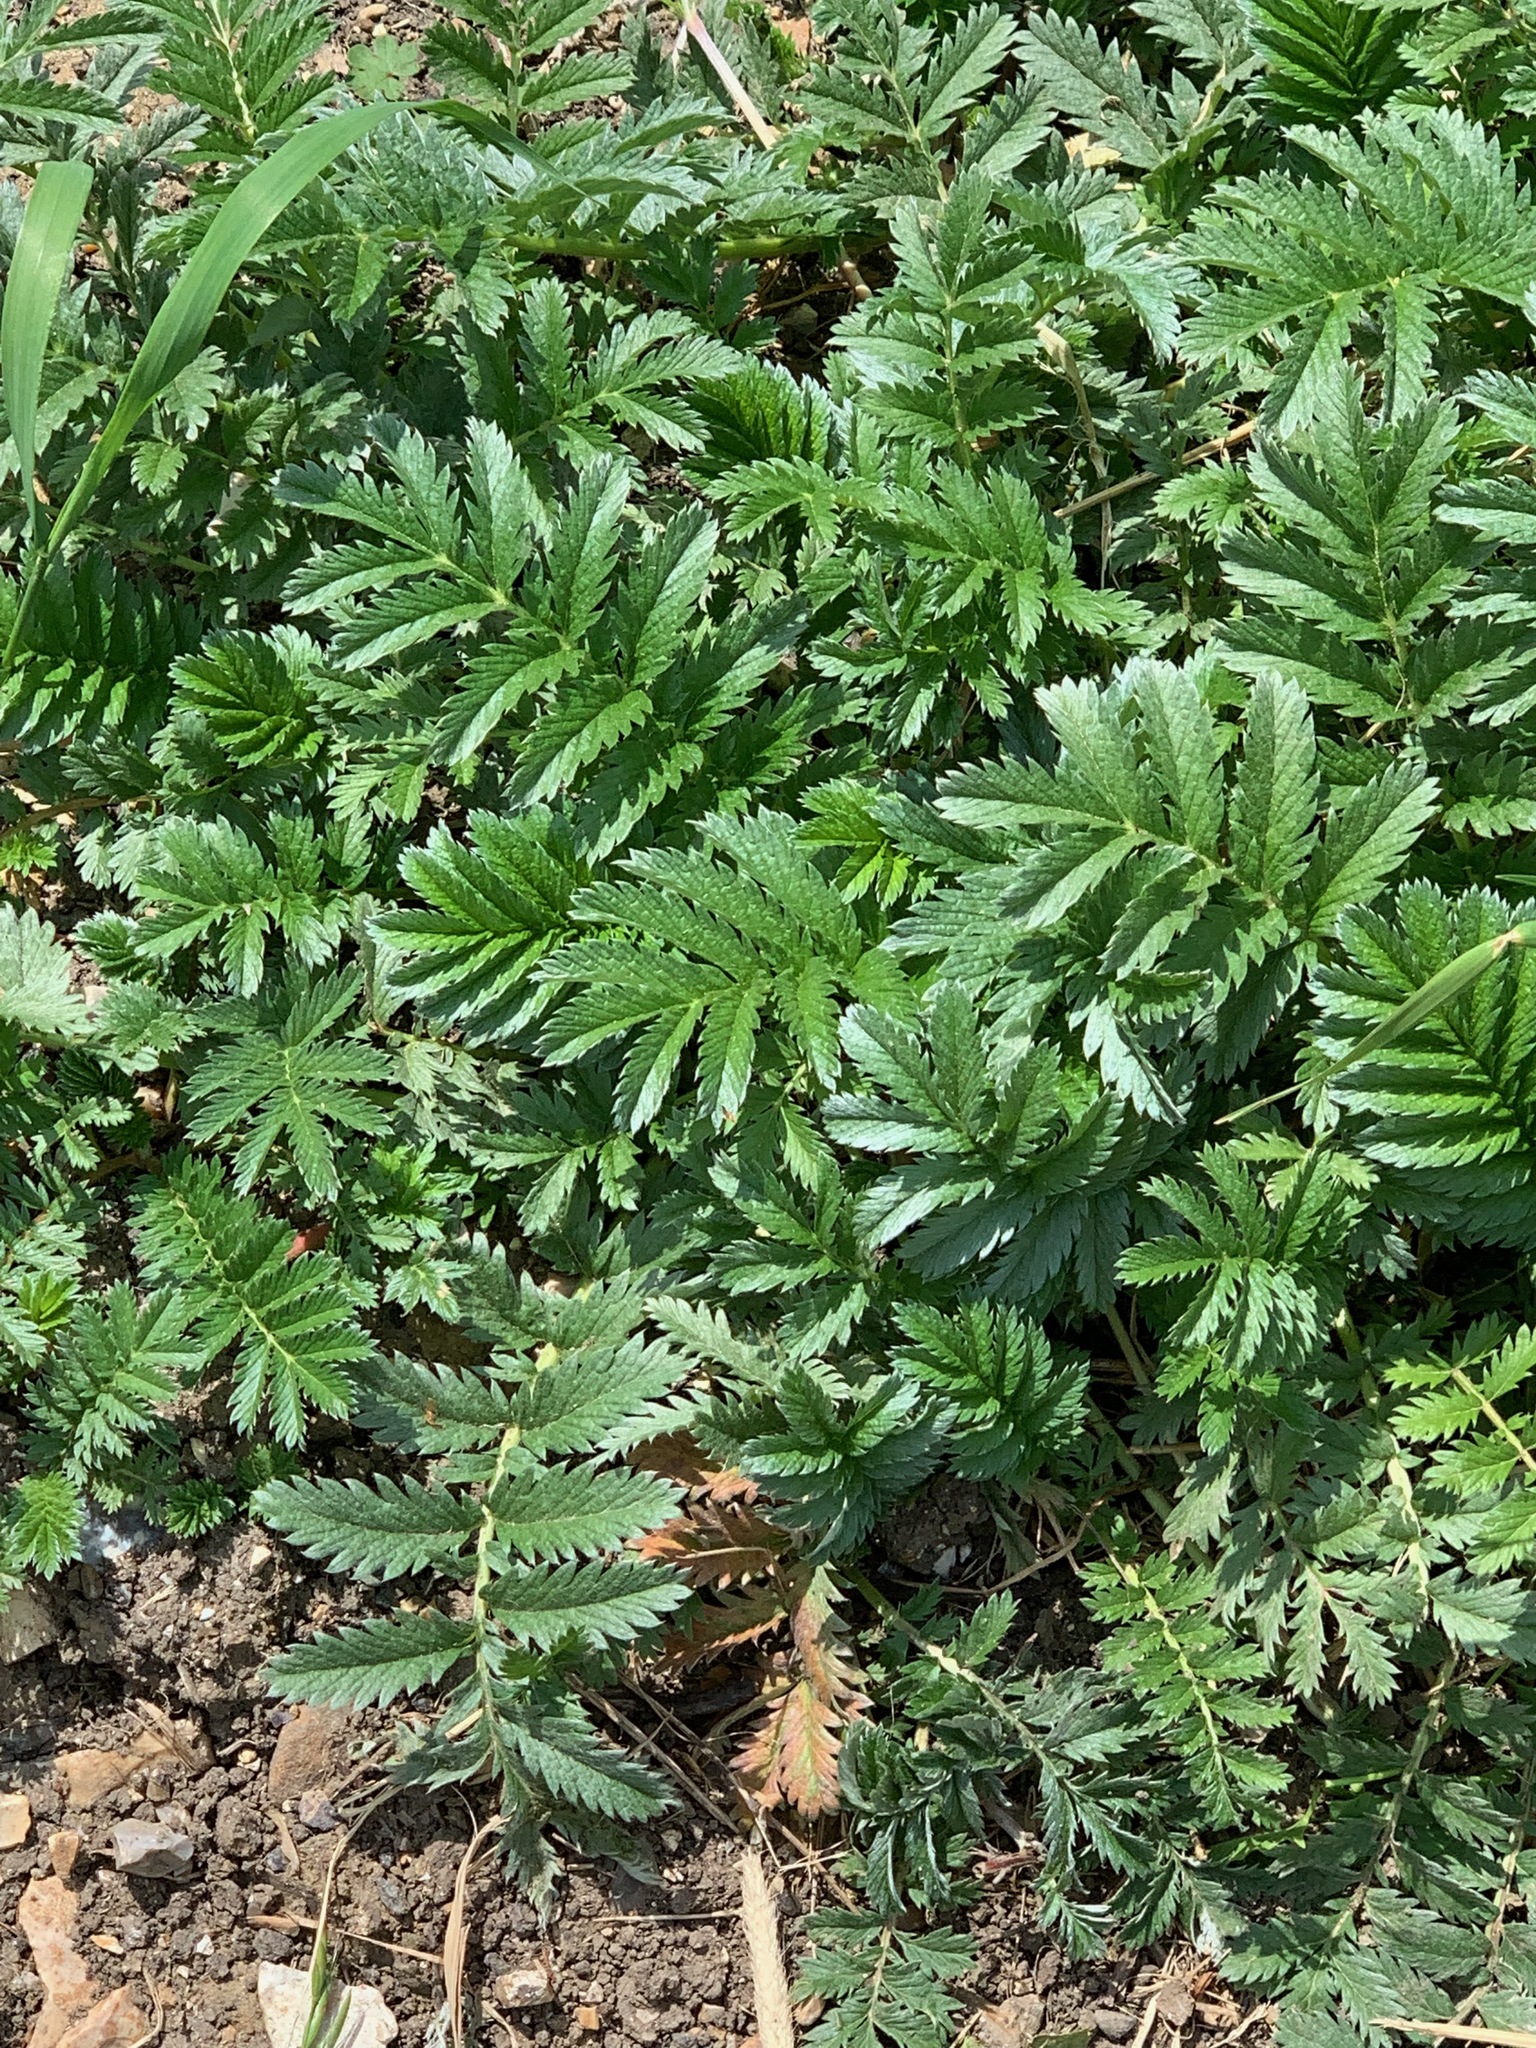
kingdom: Plantae
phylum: Tracheophyta
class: Magnoliopsida
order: Rosales
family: Rosaceae
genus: Argentina
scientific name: Argentina anserina
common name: Common silverweed
